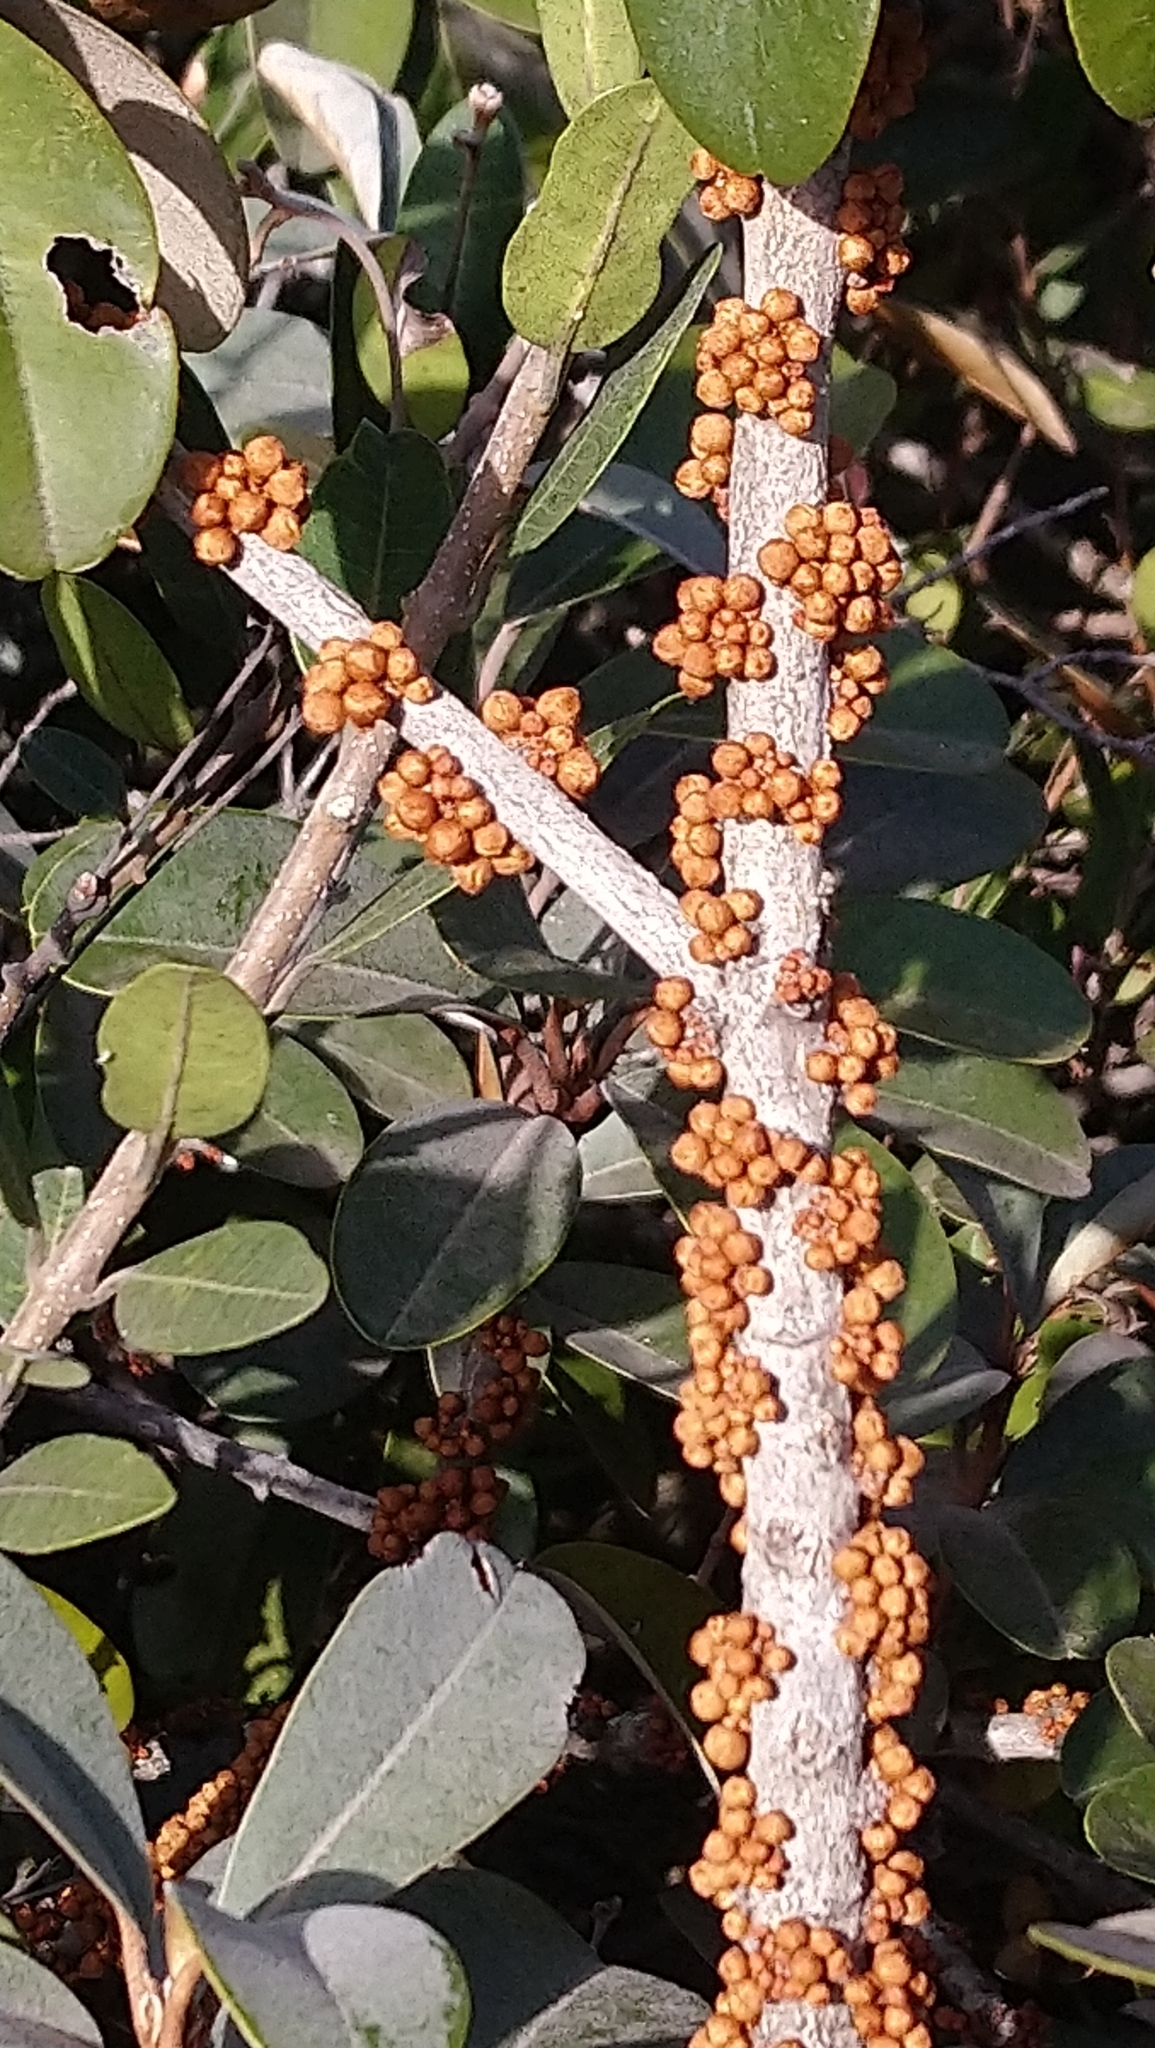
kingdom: Plantae
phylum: Tracheophyta
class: Magnoliopsida
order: Ericales
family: Sapotaceae
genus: Englerophytum
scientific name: Englerophytum magalismontanum
